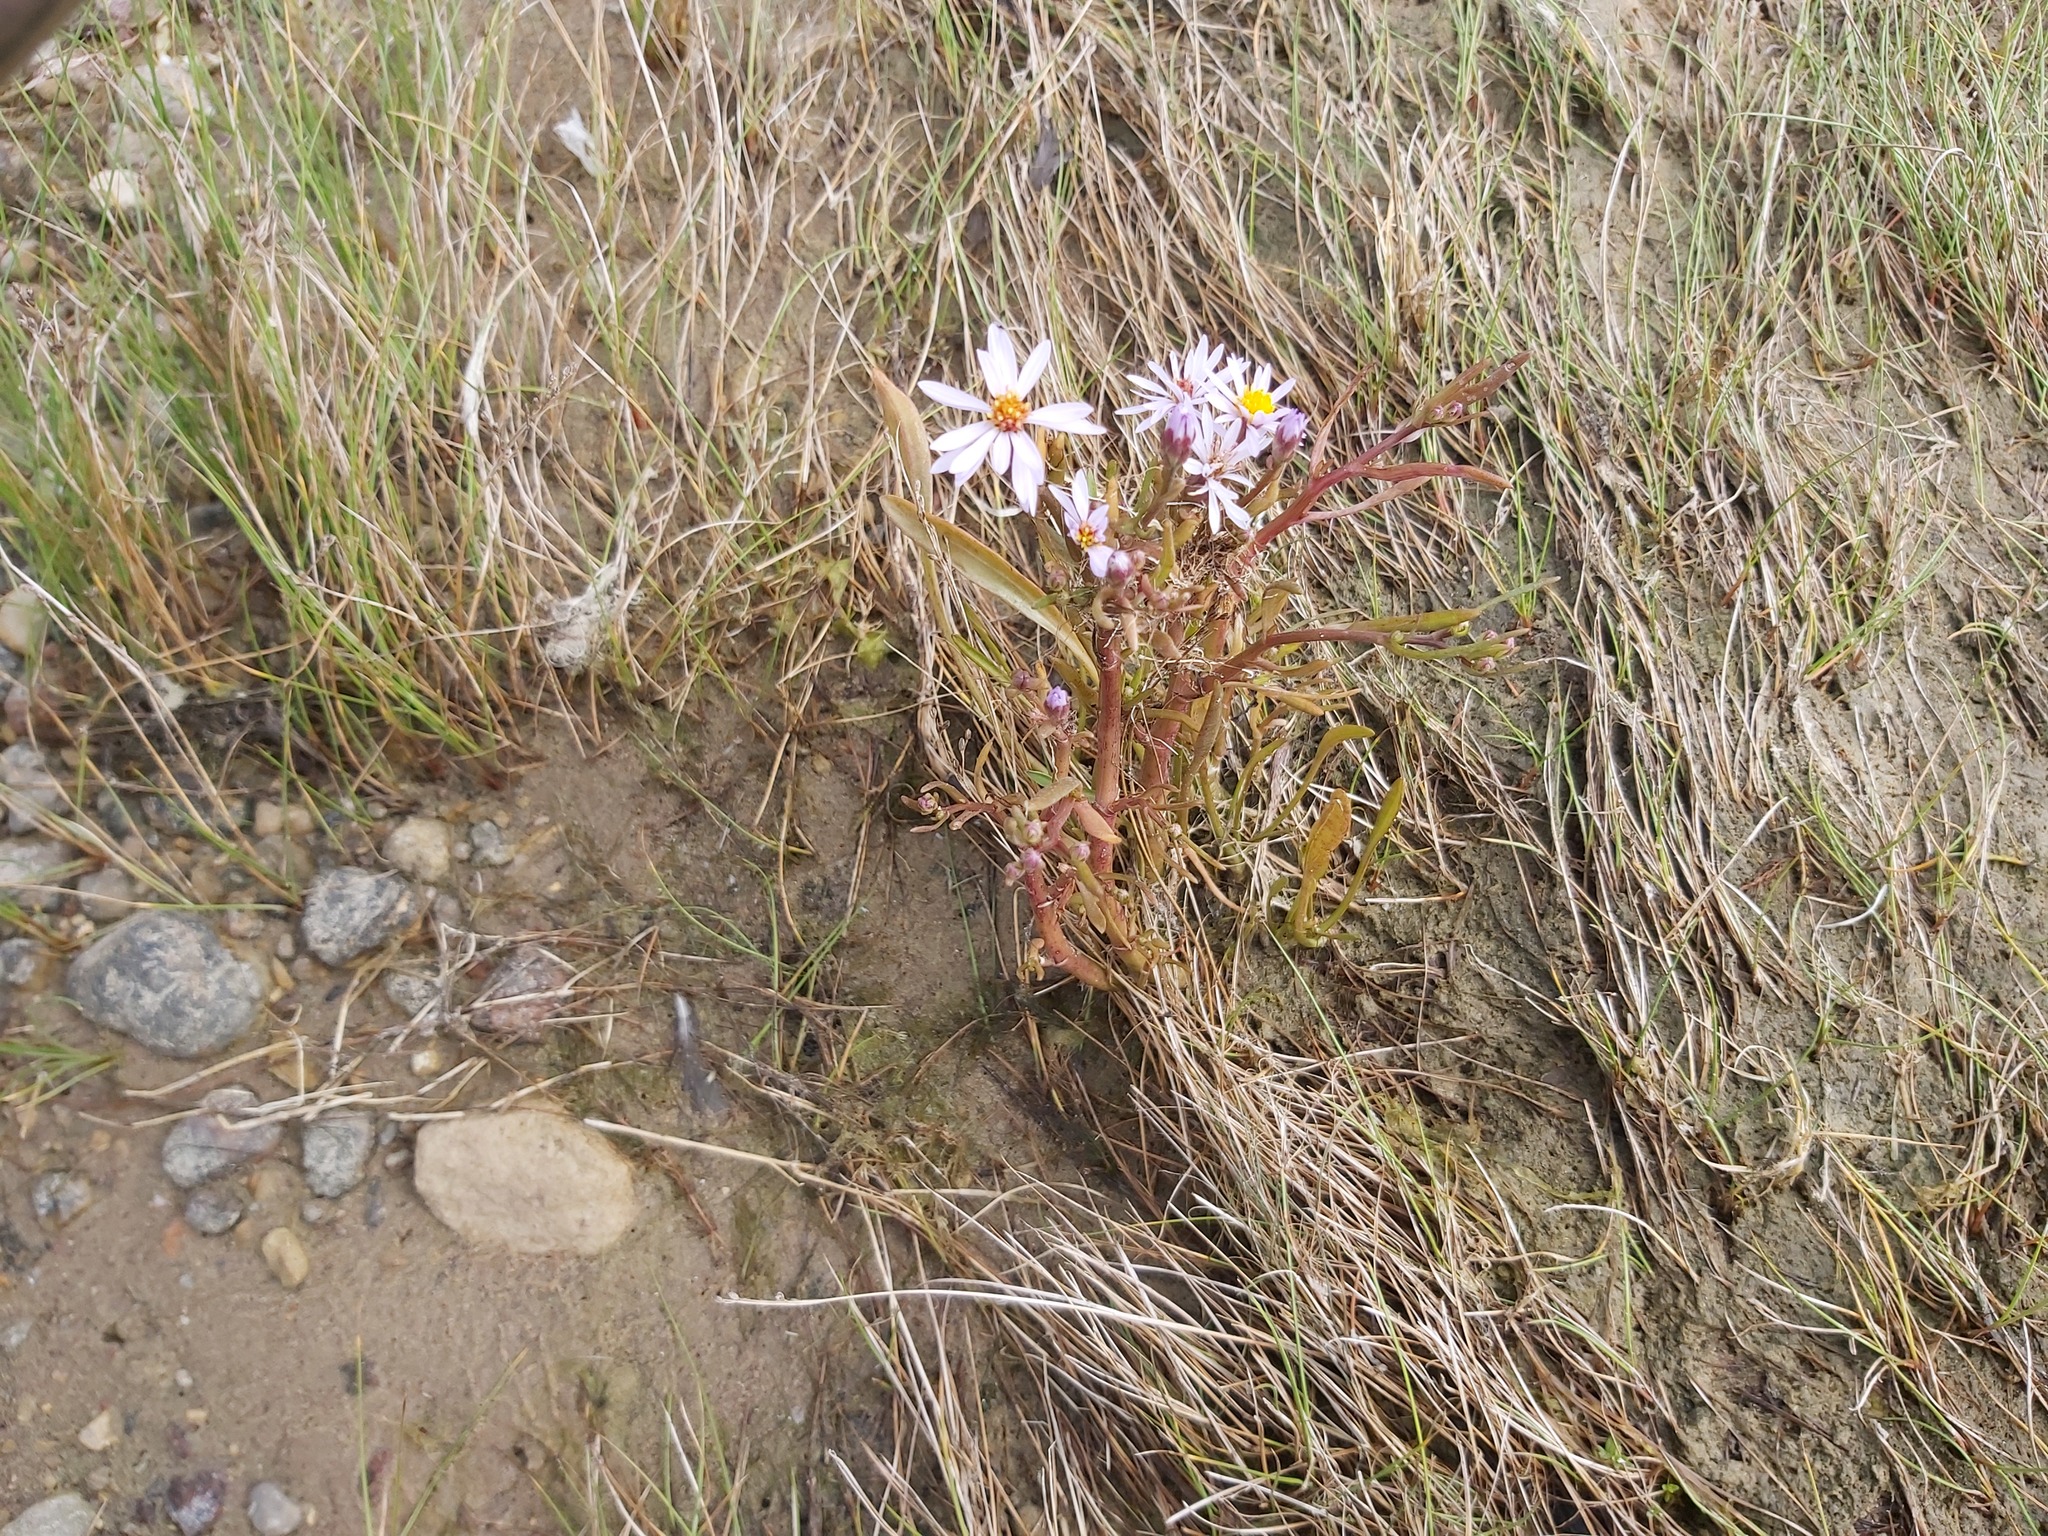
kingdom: Plantae
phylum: Tracheophyta
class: Magnoliopsida
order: Asterales
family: Asteraceae
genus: Tripolium
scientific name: Tripolium pannonicum
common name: Sea aster
